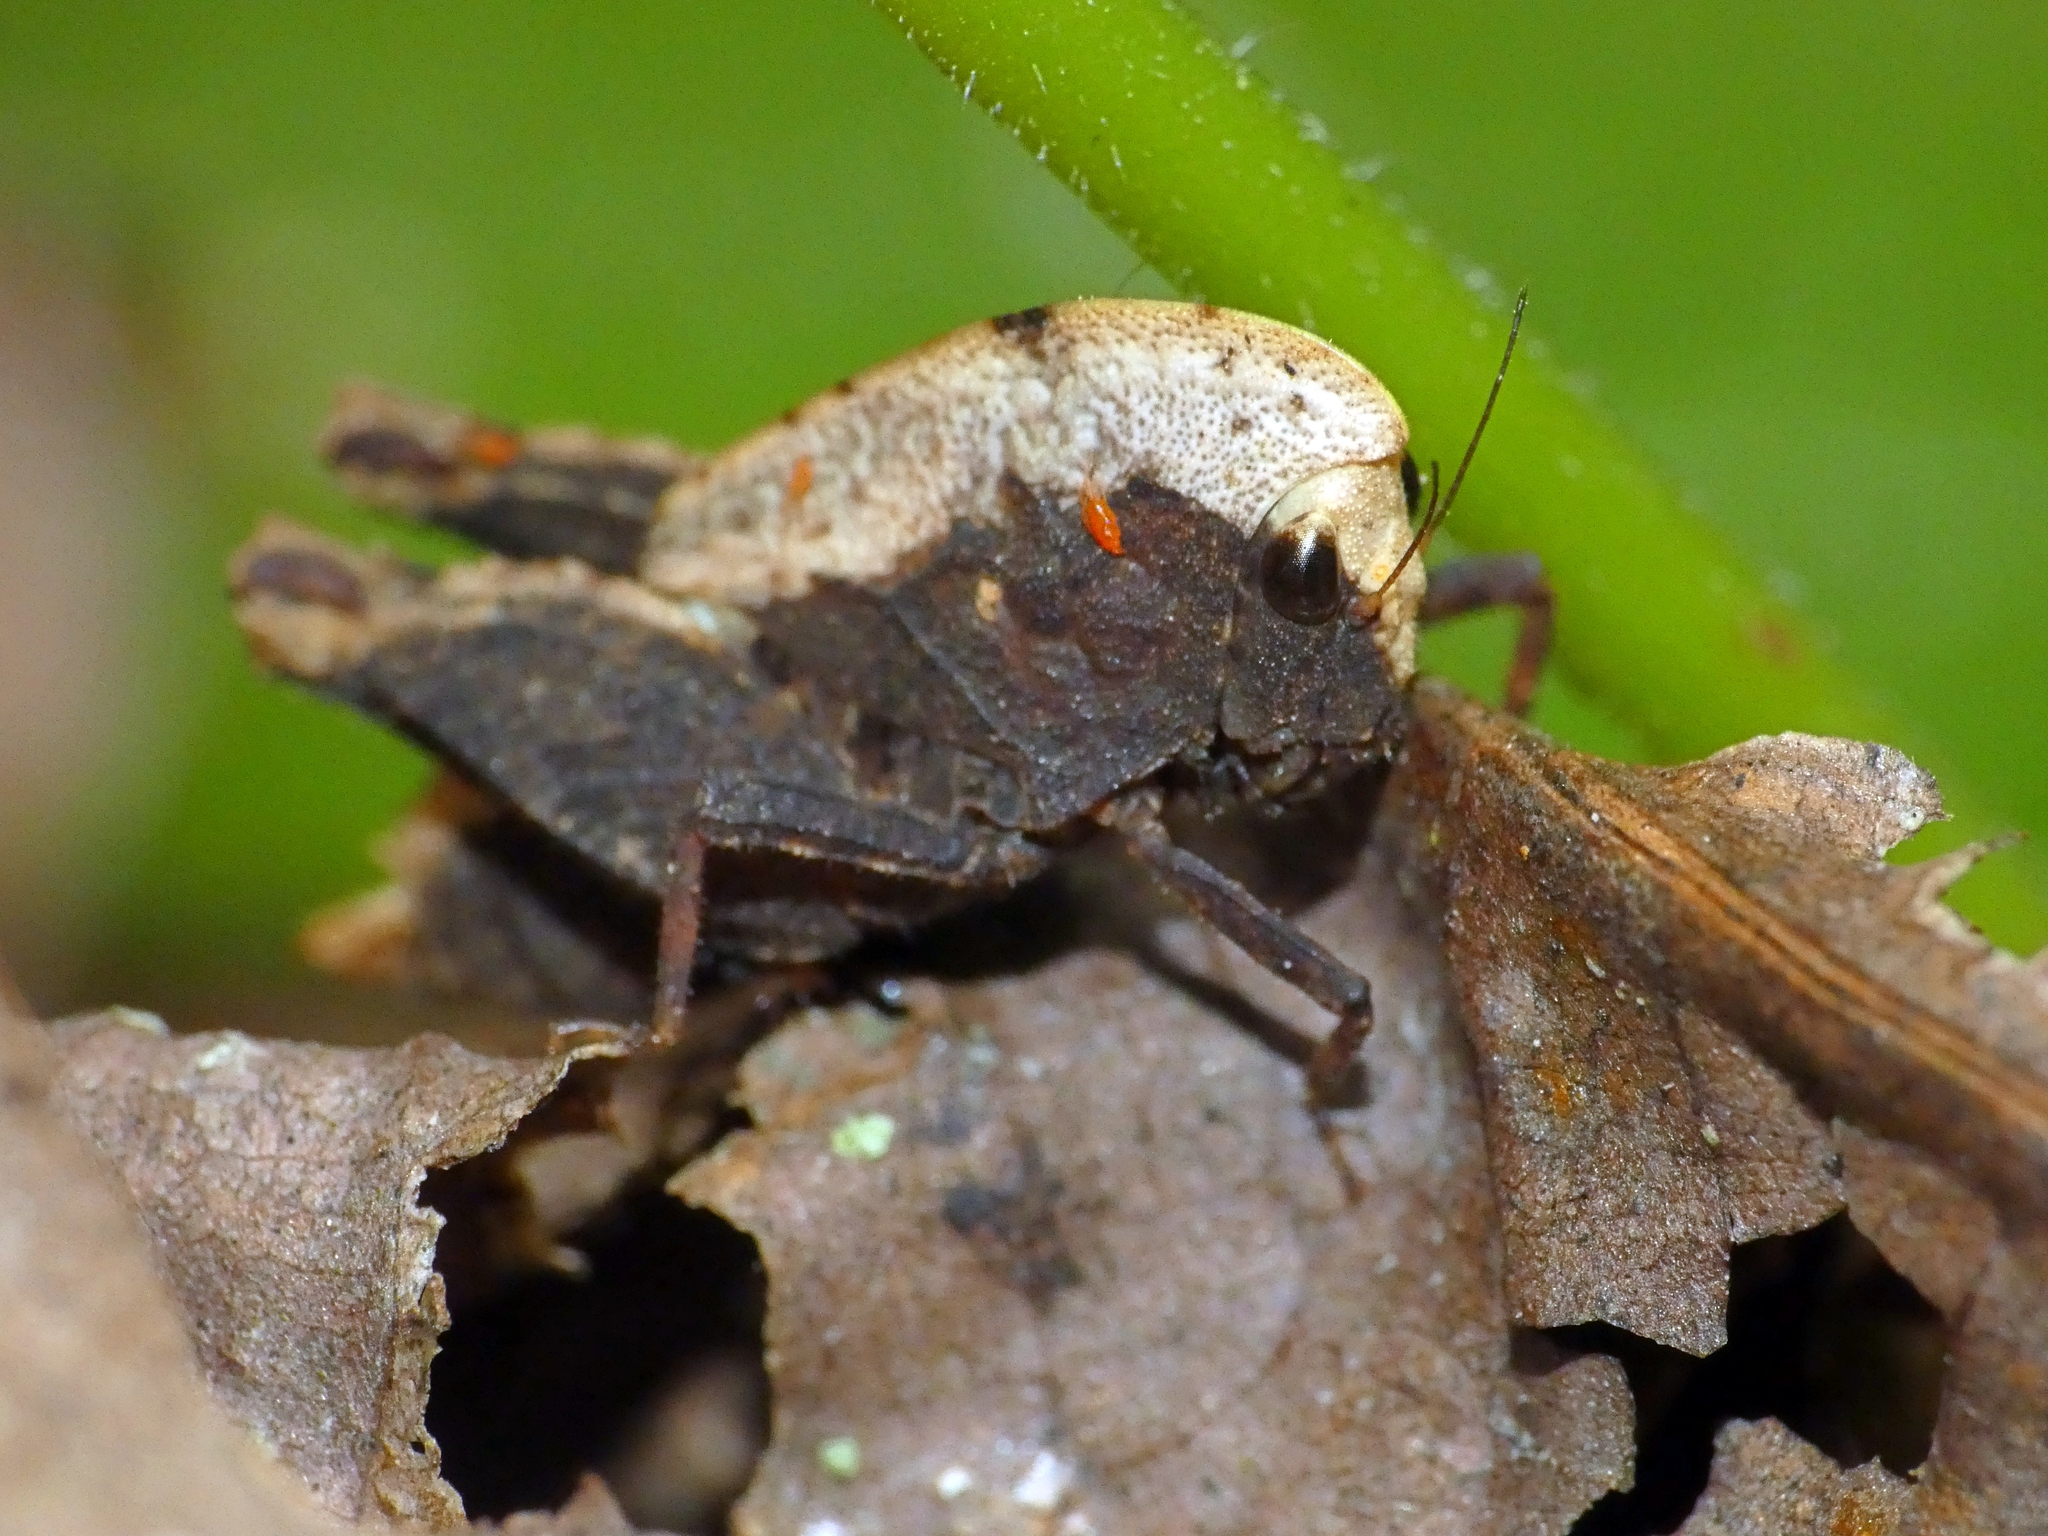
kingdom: Animalia
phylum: Arthropoda
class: Insecta
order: Orthoptera
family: Tetrigidae
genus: Selivinga
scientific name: Selivinga tribulata
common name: Tribulation helmed groundhopper
